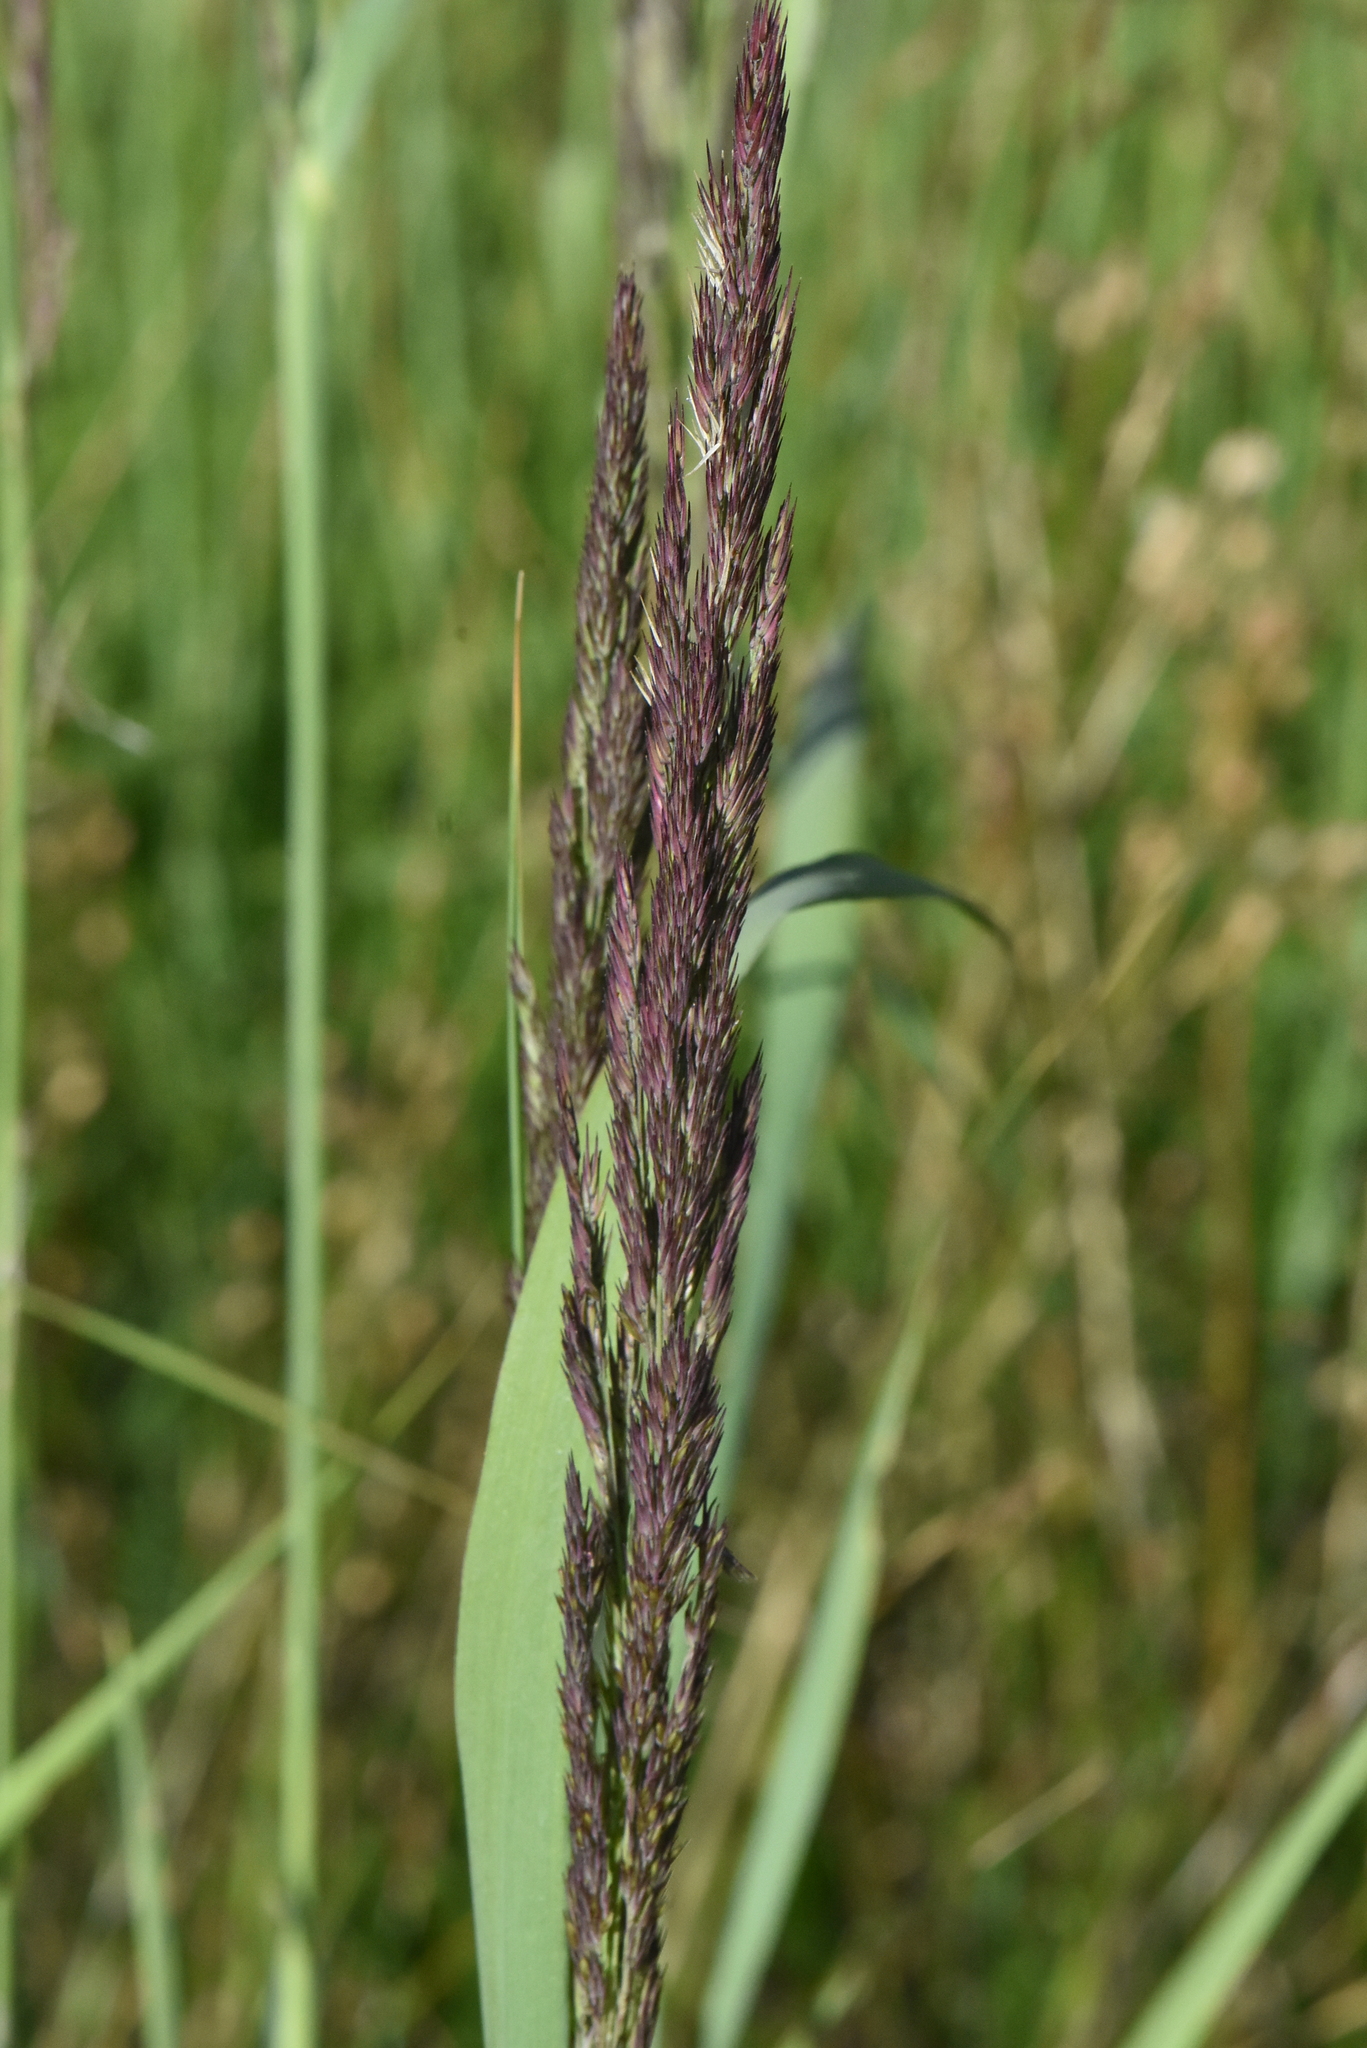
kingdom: Plantae
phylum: Tracheophyta
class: Liliopsida
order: Poales
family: Poaceae
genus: Calamagrostis
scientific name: Calamagrostis epigejos
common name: Wood small-reed
